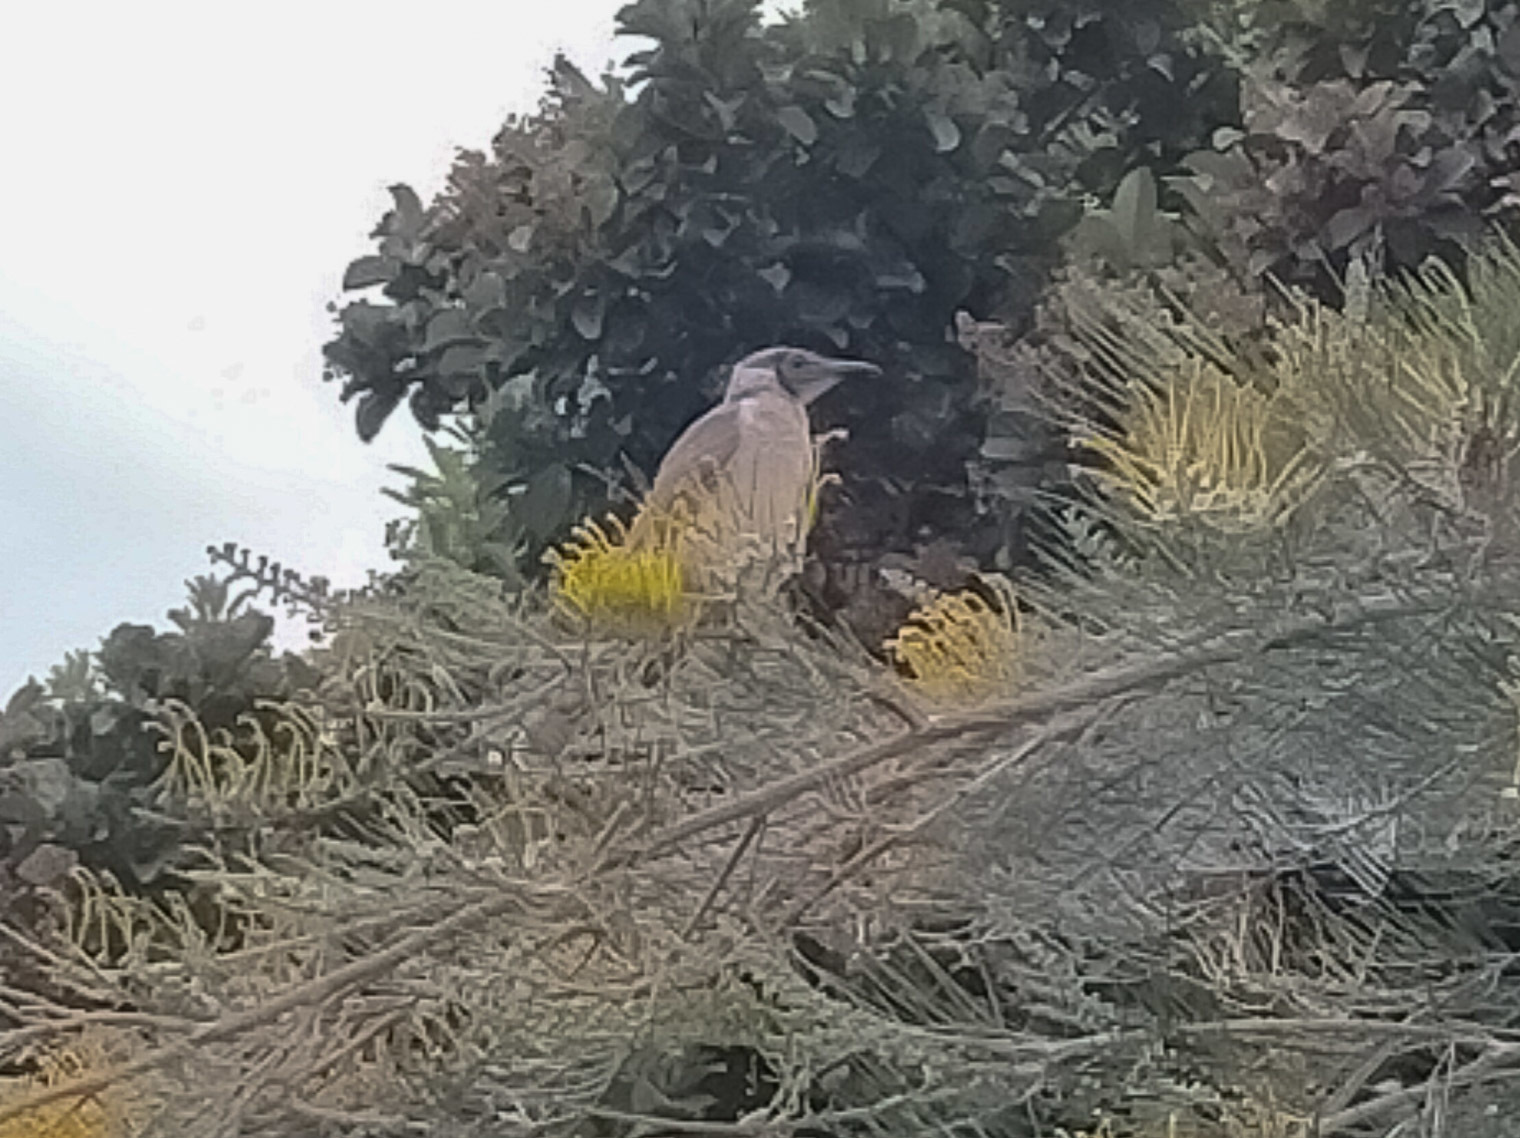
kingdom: Animalia
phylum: Chordata
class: Aves
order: Passeriformes
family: Meliphagidae
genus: Philemon
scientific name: Philemon corniculatus
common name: Noisy friarbird
